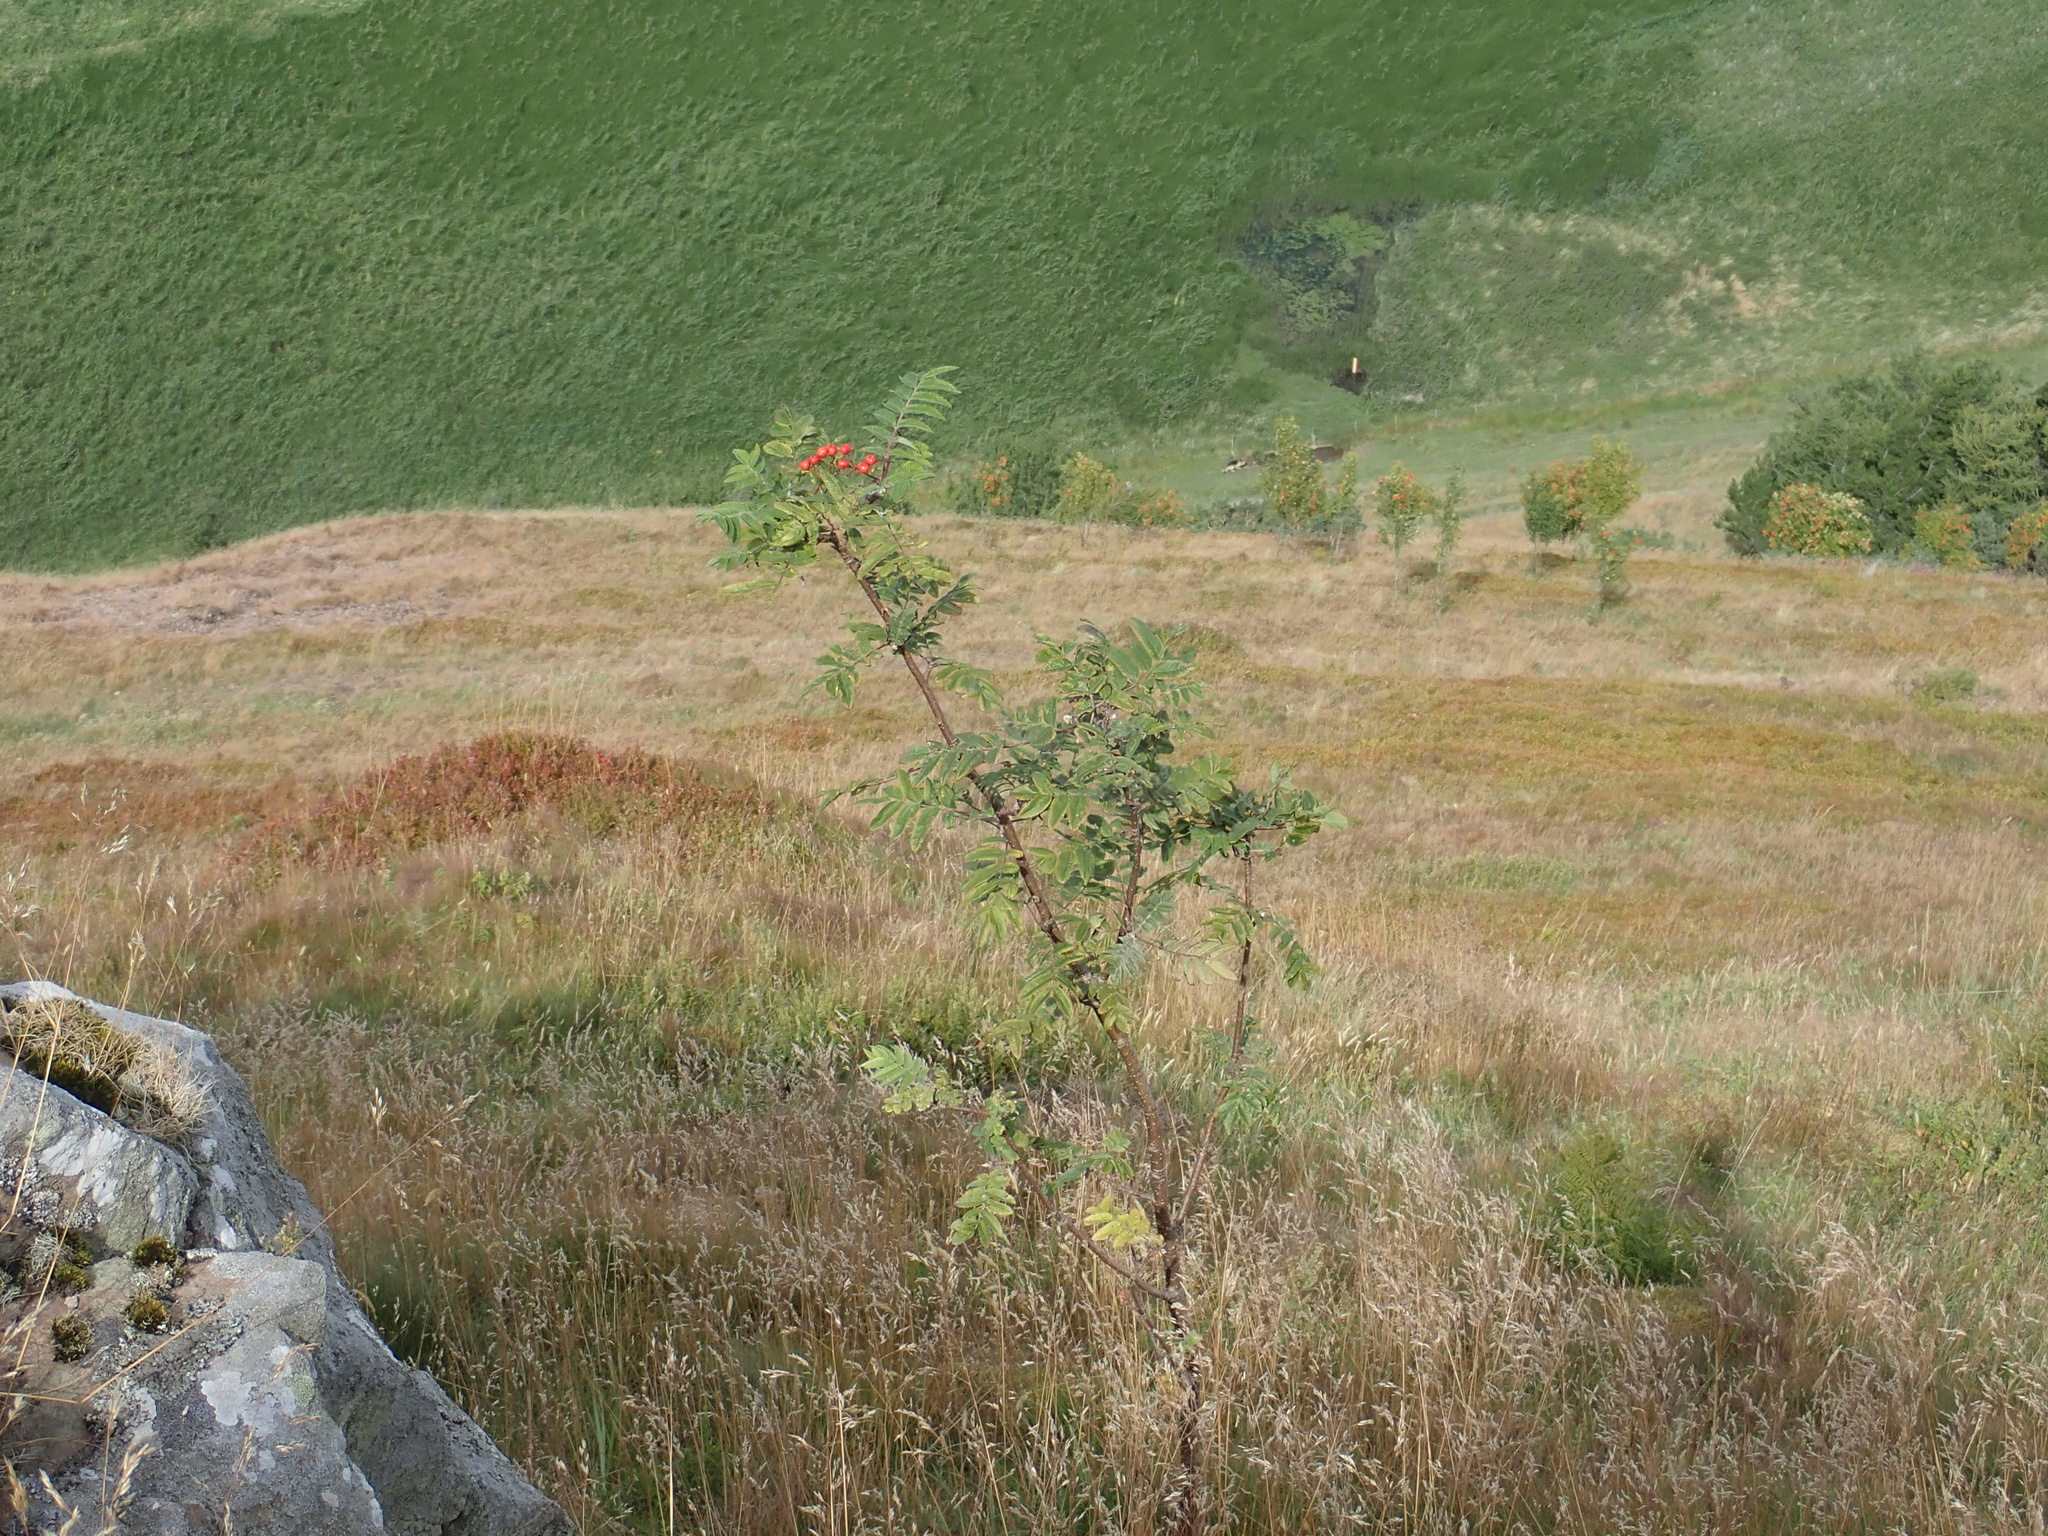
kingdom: Plantae
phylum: Tracheophyta
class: Magnoliopsida
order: Rosales
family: Rosaceae
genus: Sorbus
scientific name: Sorbus aucuparia
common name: Rowan
